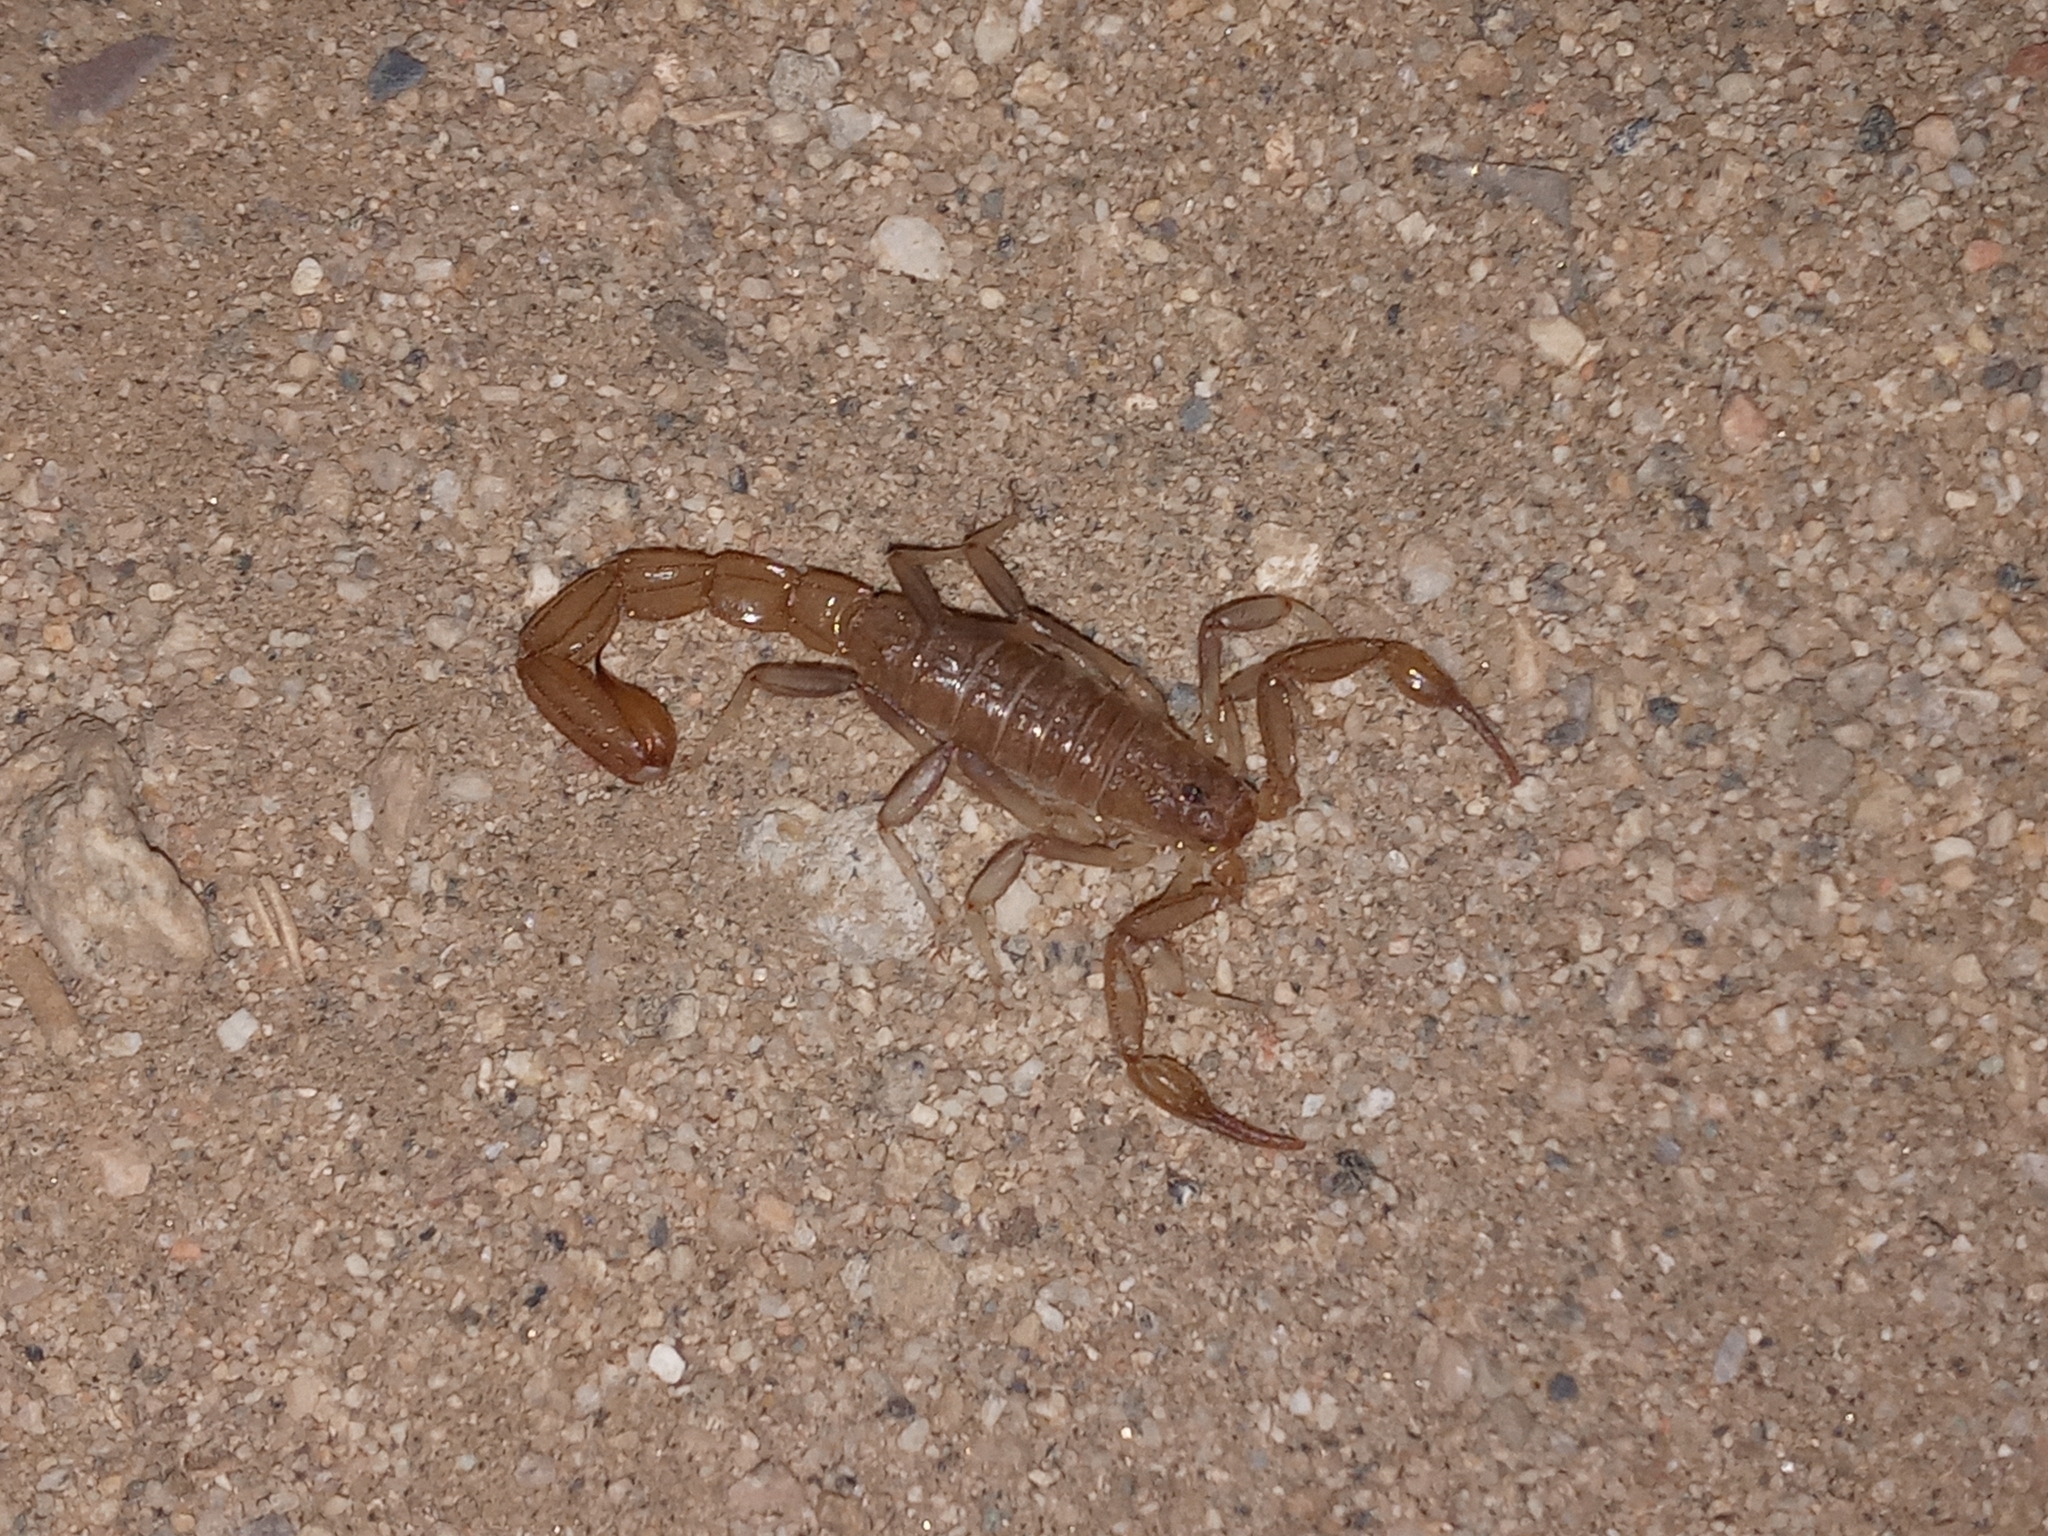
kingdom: Animalia
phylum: Arthropoda
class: Arachnida
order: Scorpiones
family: Vaejovidae
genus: Paravaejovis
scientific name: Paravaejovis puritanus
